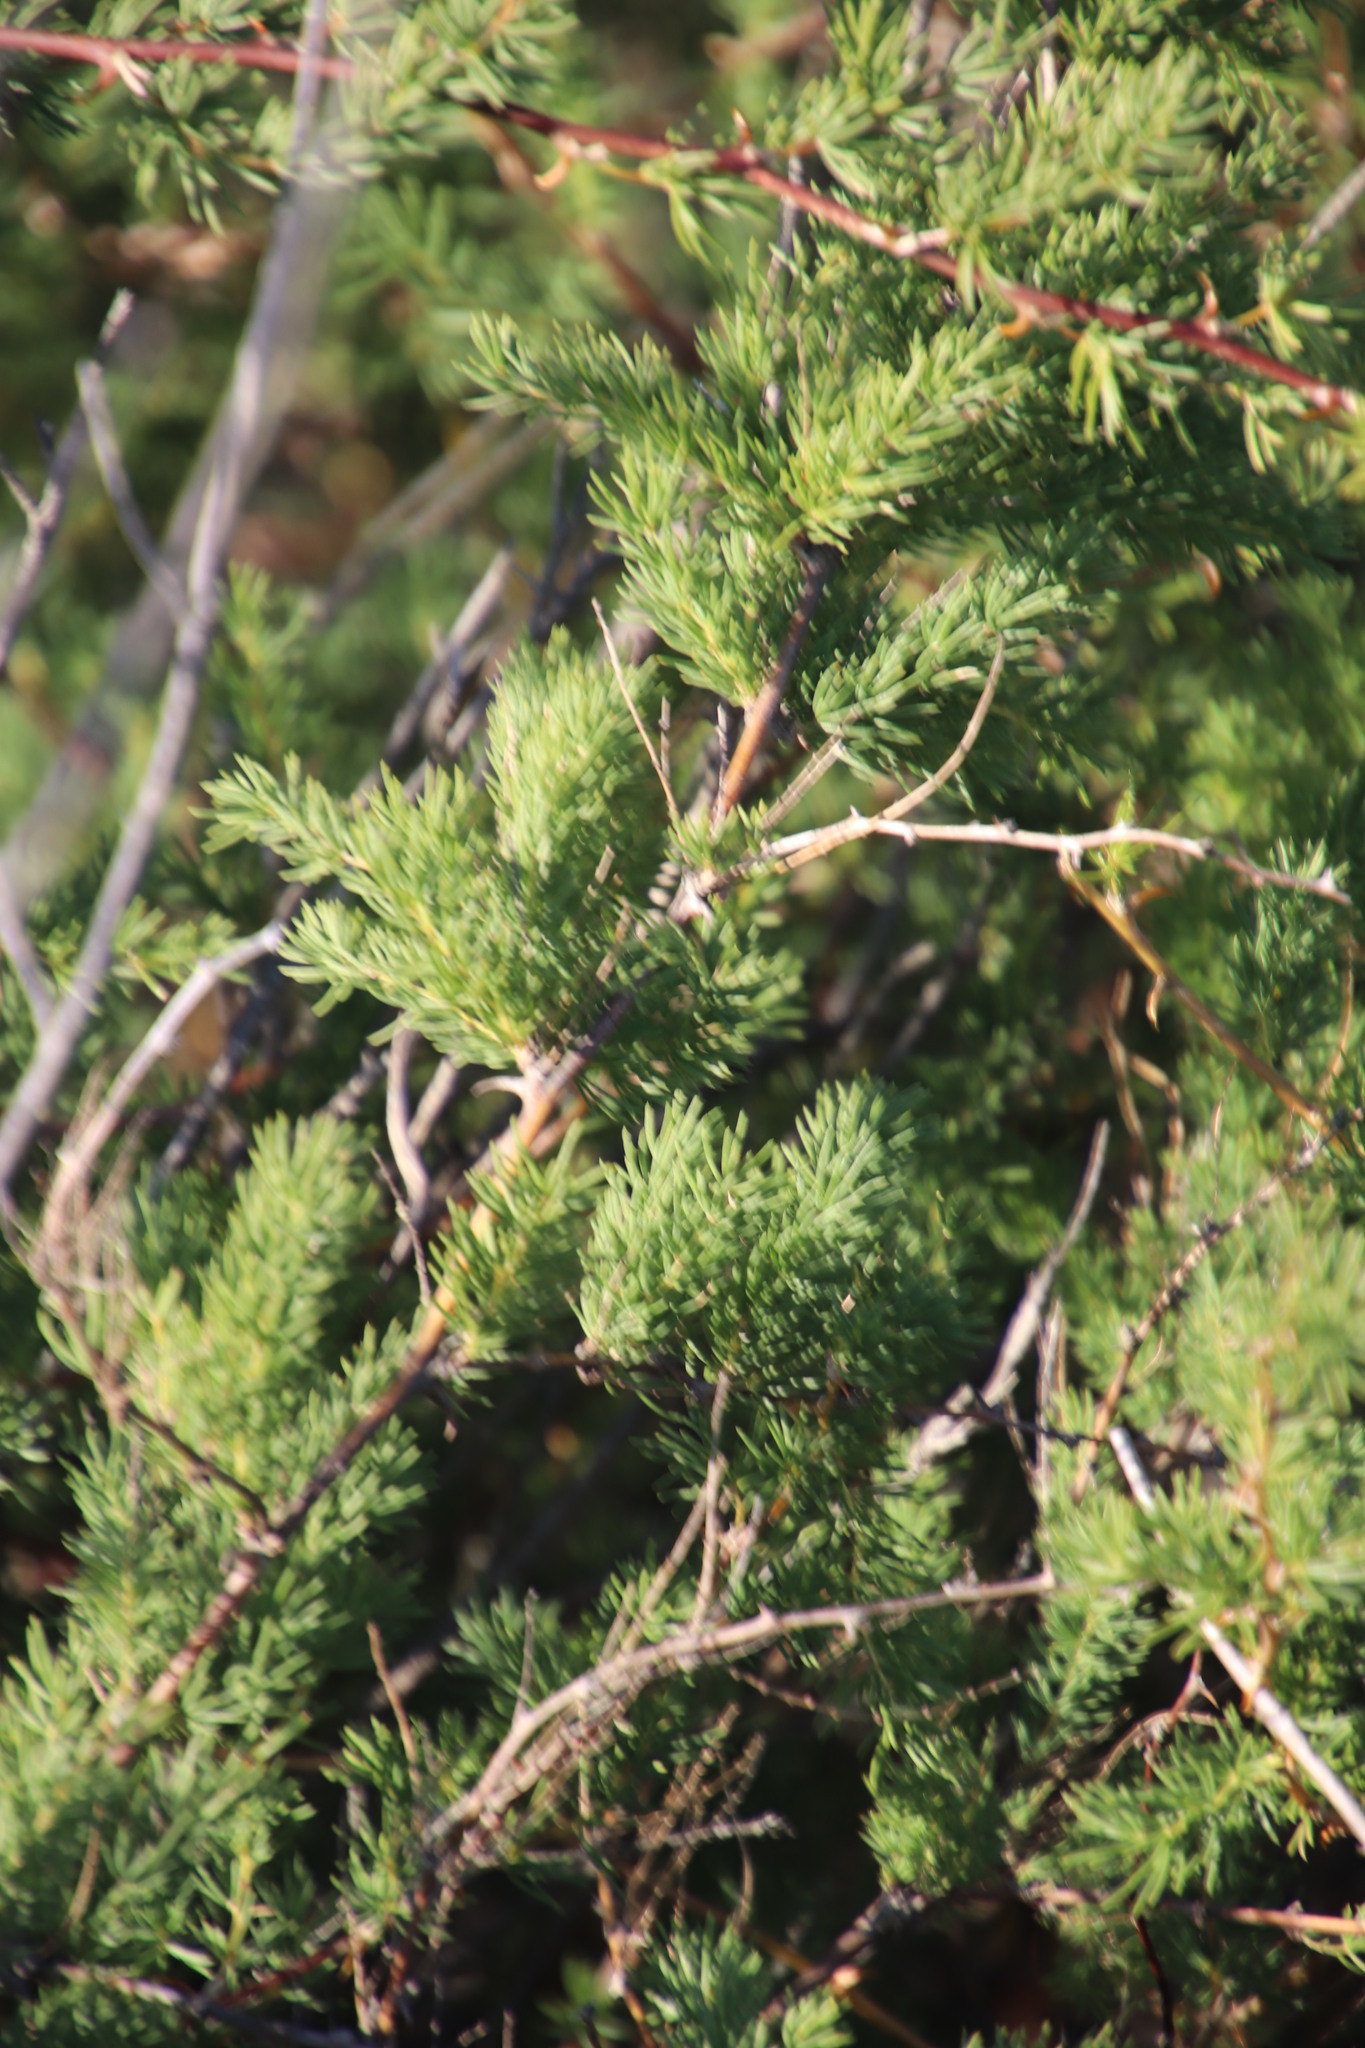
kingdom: Plantae
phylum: Tracheophyta
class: Liliopsida
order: Asparagales
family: Asparagaceae
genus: Asparagus
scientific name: Asparagus rubicundus
